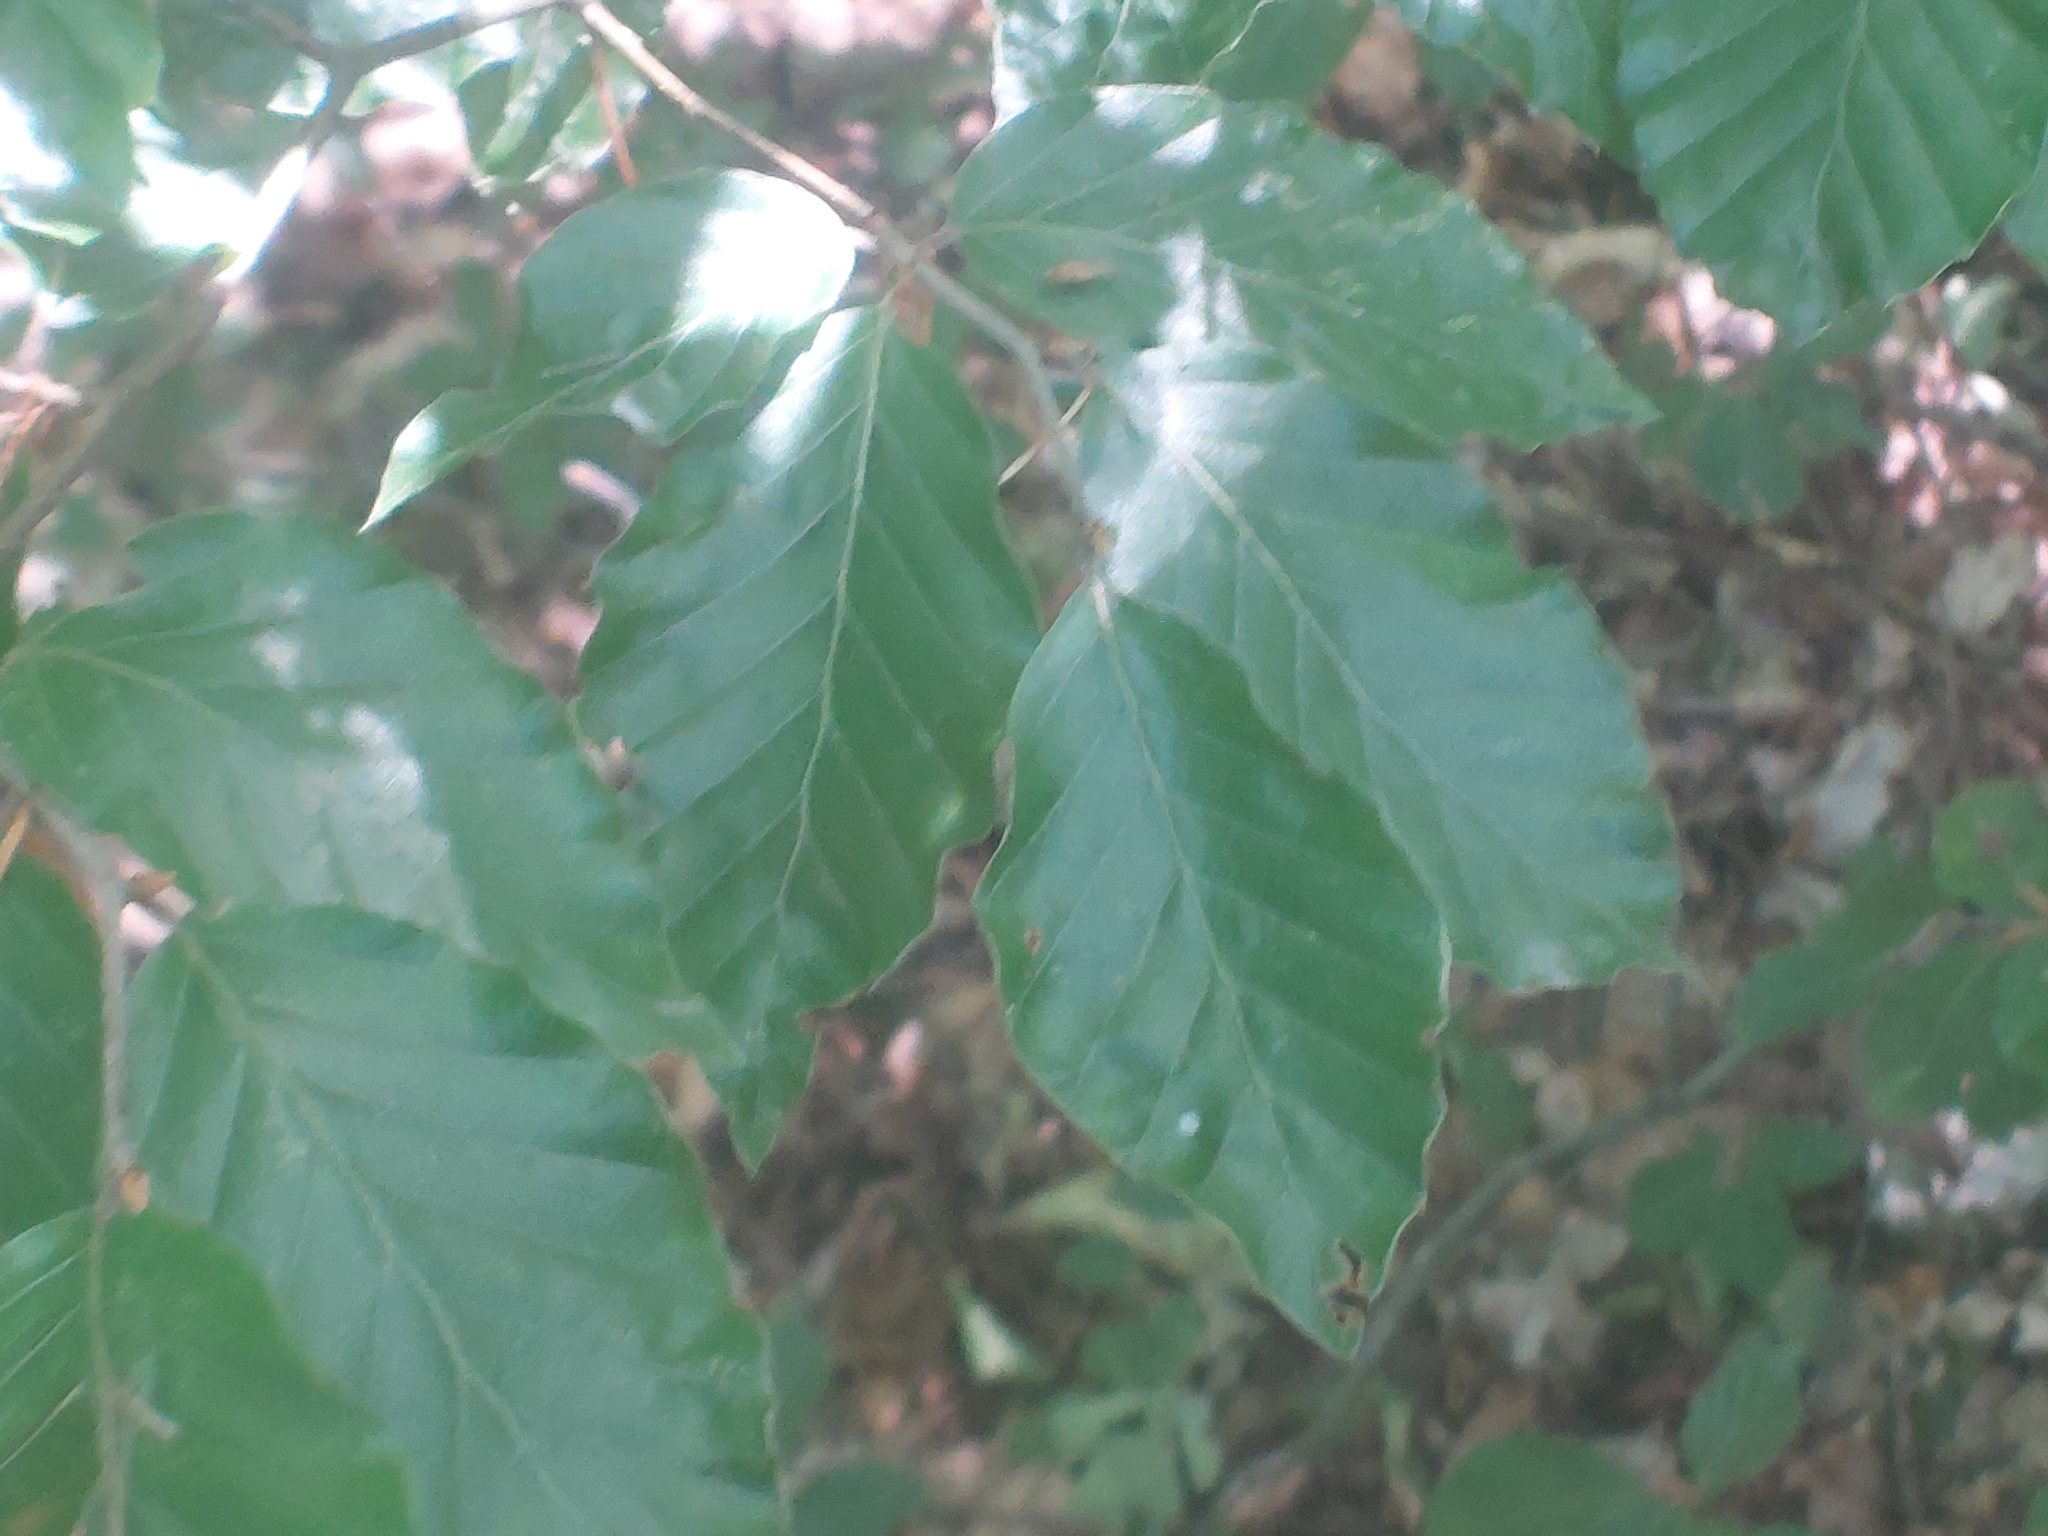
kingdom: Plantae
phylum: Tracheophyta
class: Magnoliopsida
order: Fagales
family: Fagaceae
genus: Fagus
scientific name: Fagus sylvatica
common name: Beech
